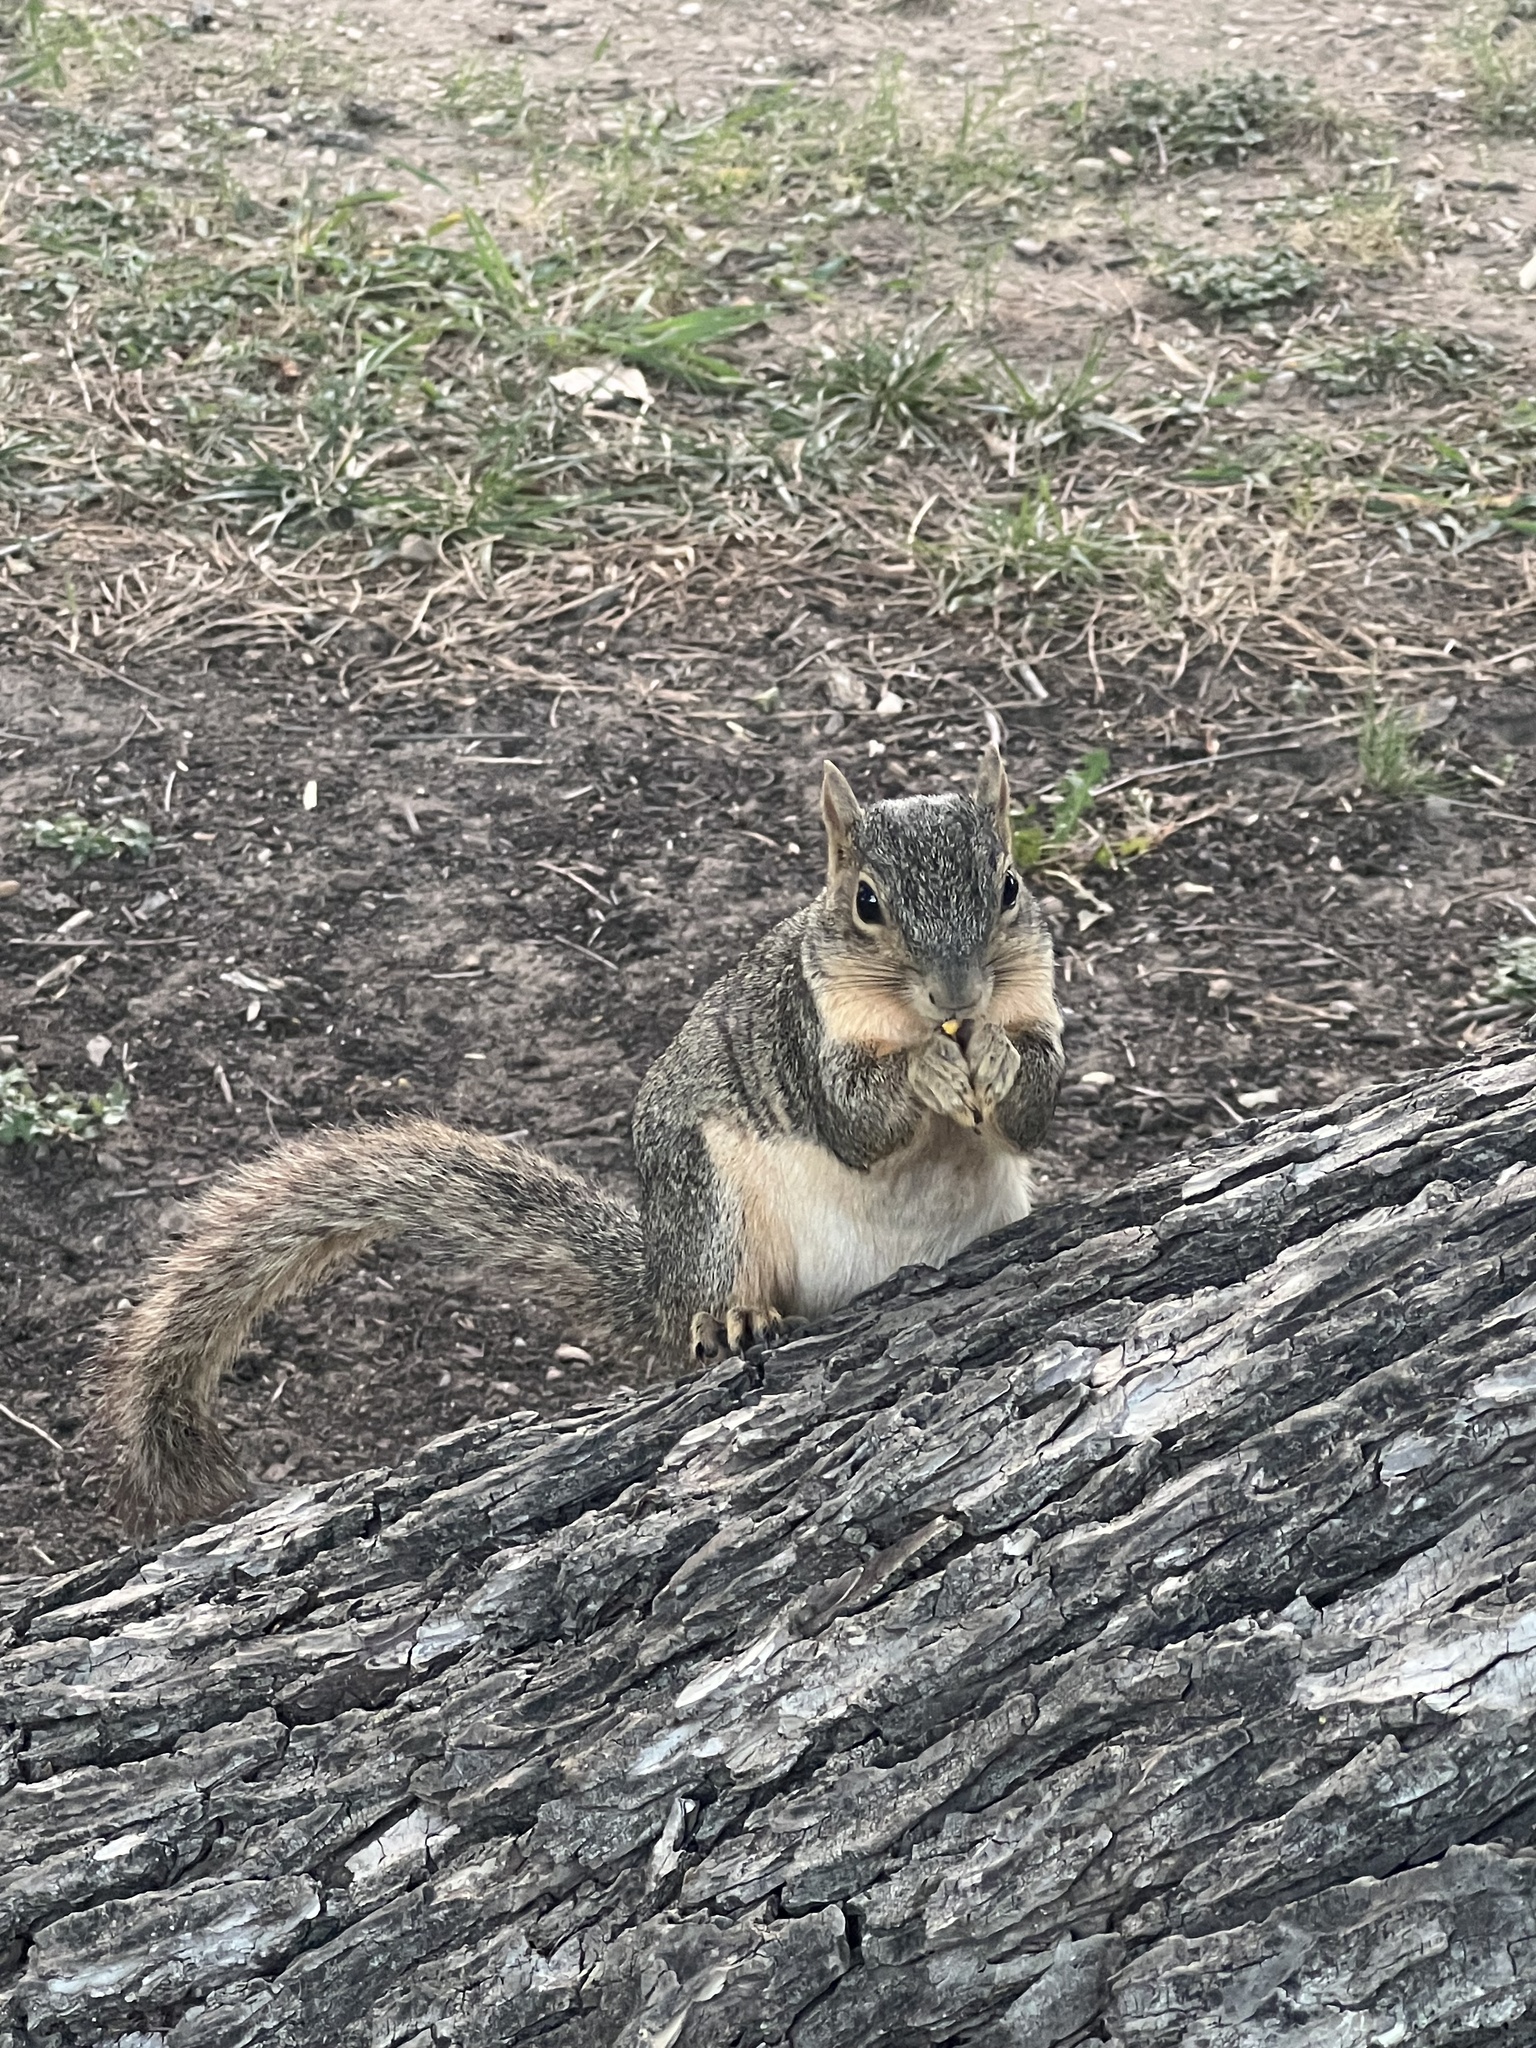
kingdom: Animalia
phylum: Chordata
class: Mammalia
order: Rodentia
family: Sciuridae
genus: Sciurus
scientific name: Sciurus niger
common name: Fox squirrel
